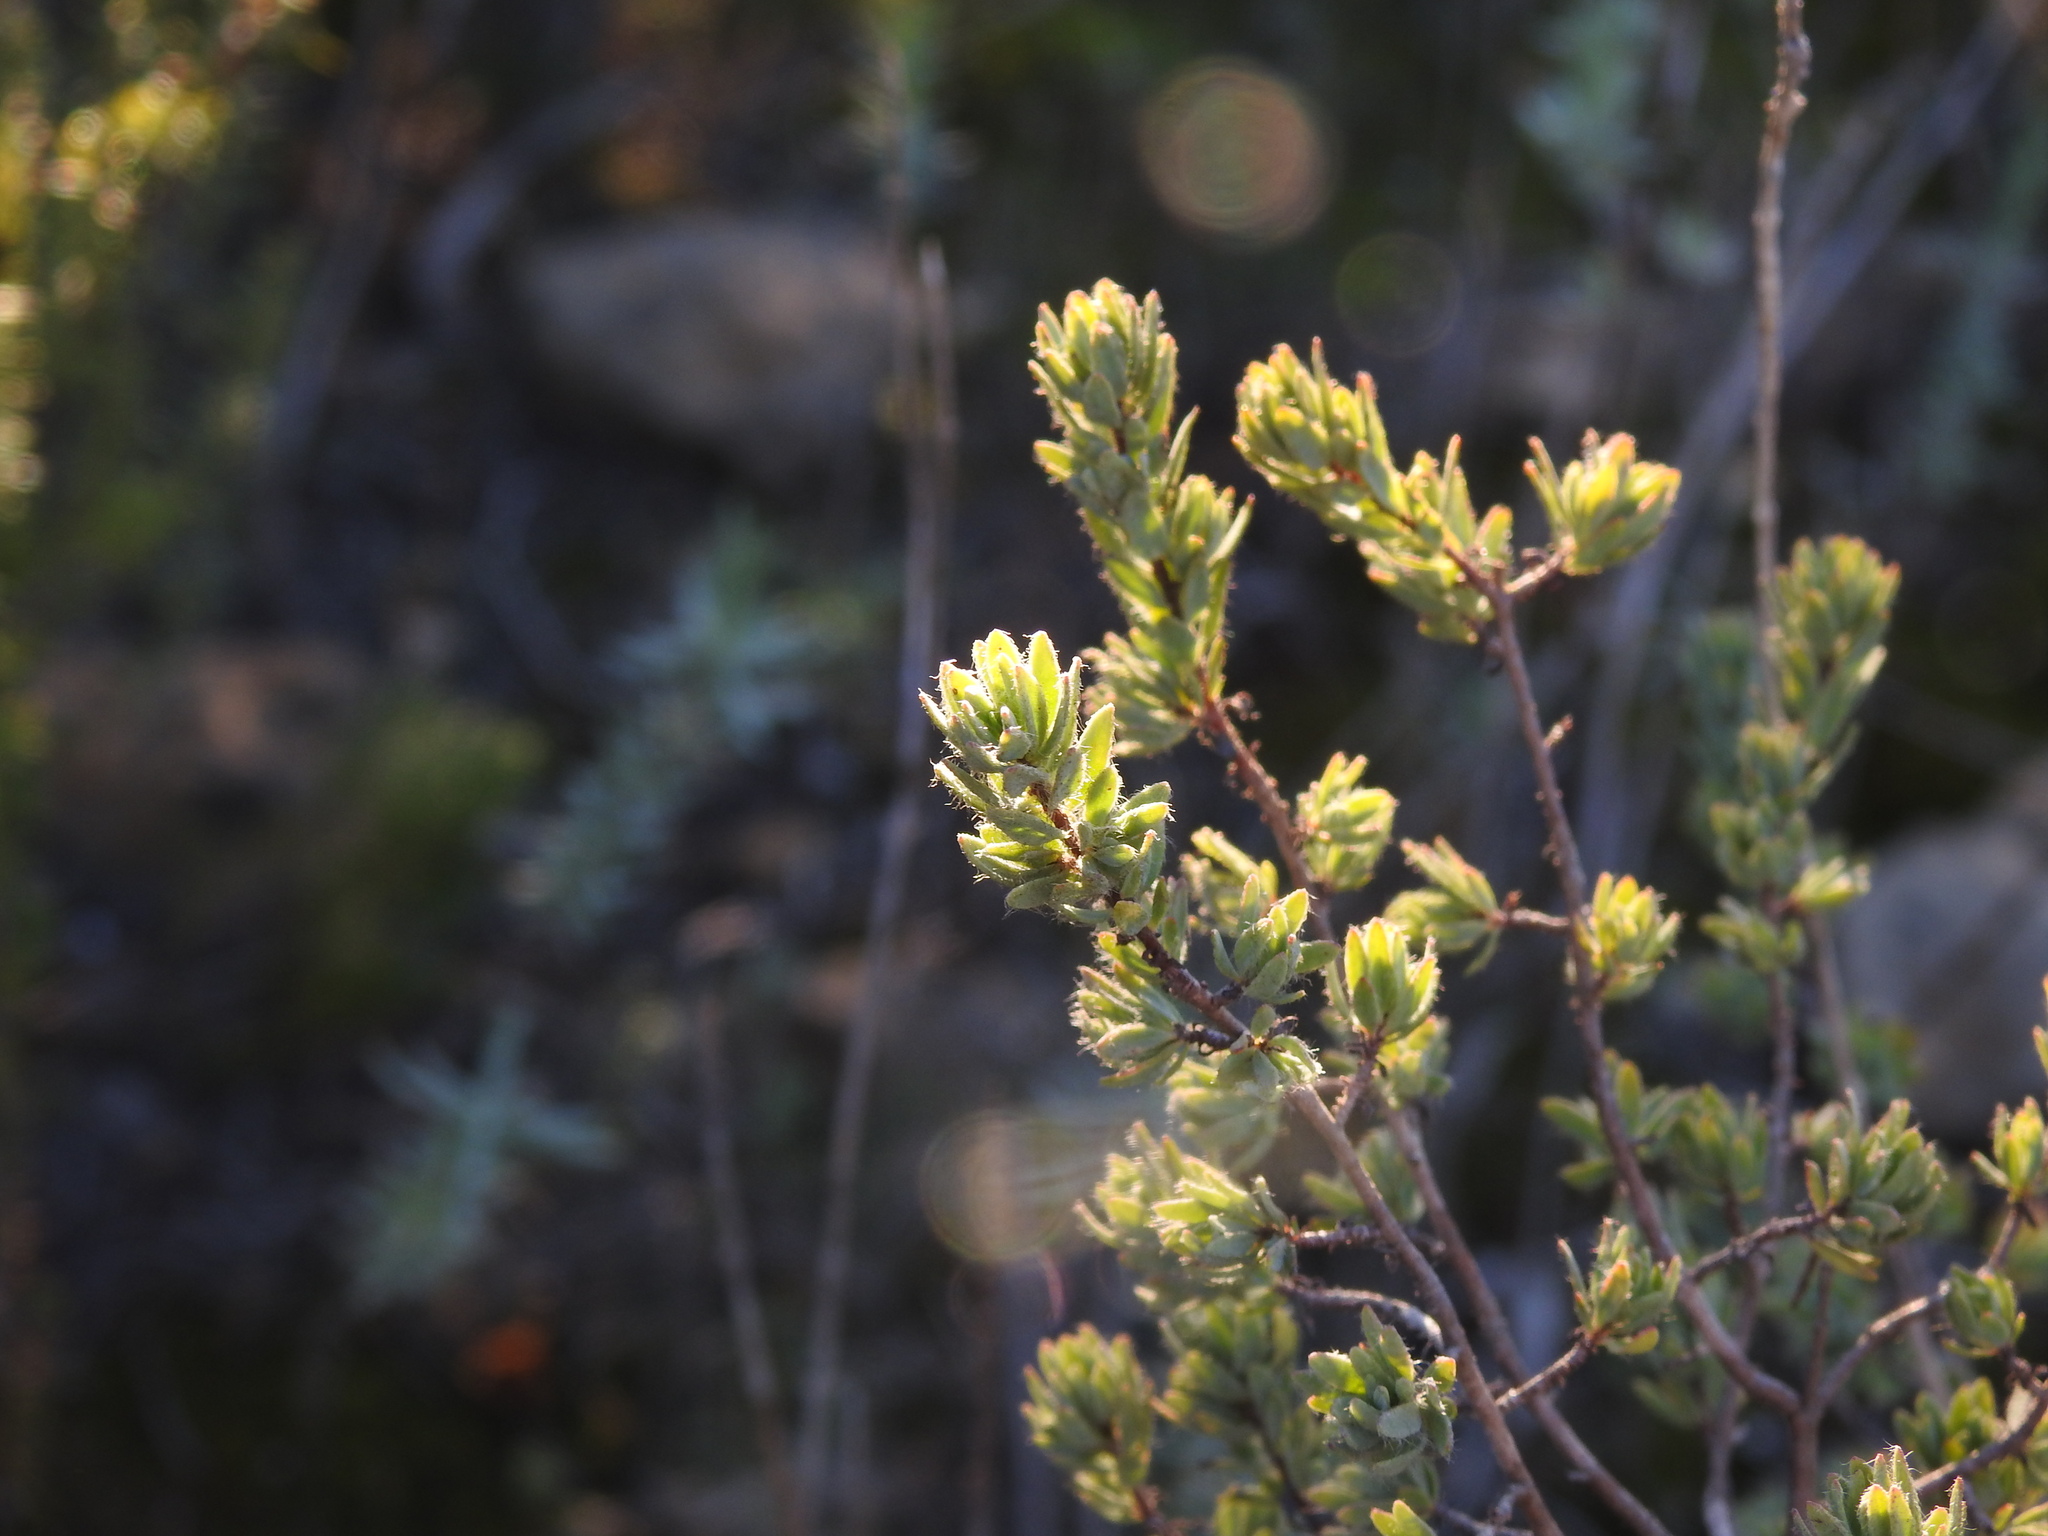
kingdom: Plantae
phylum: Tracheophyta
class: Magnoliopsida
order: Malvales
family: Thymelaeaceae
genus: Thymelaea
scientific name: Thymelaea villosa
